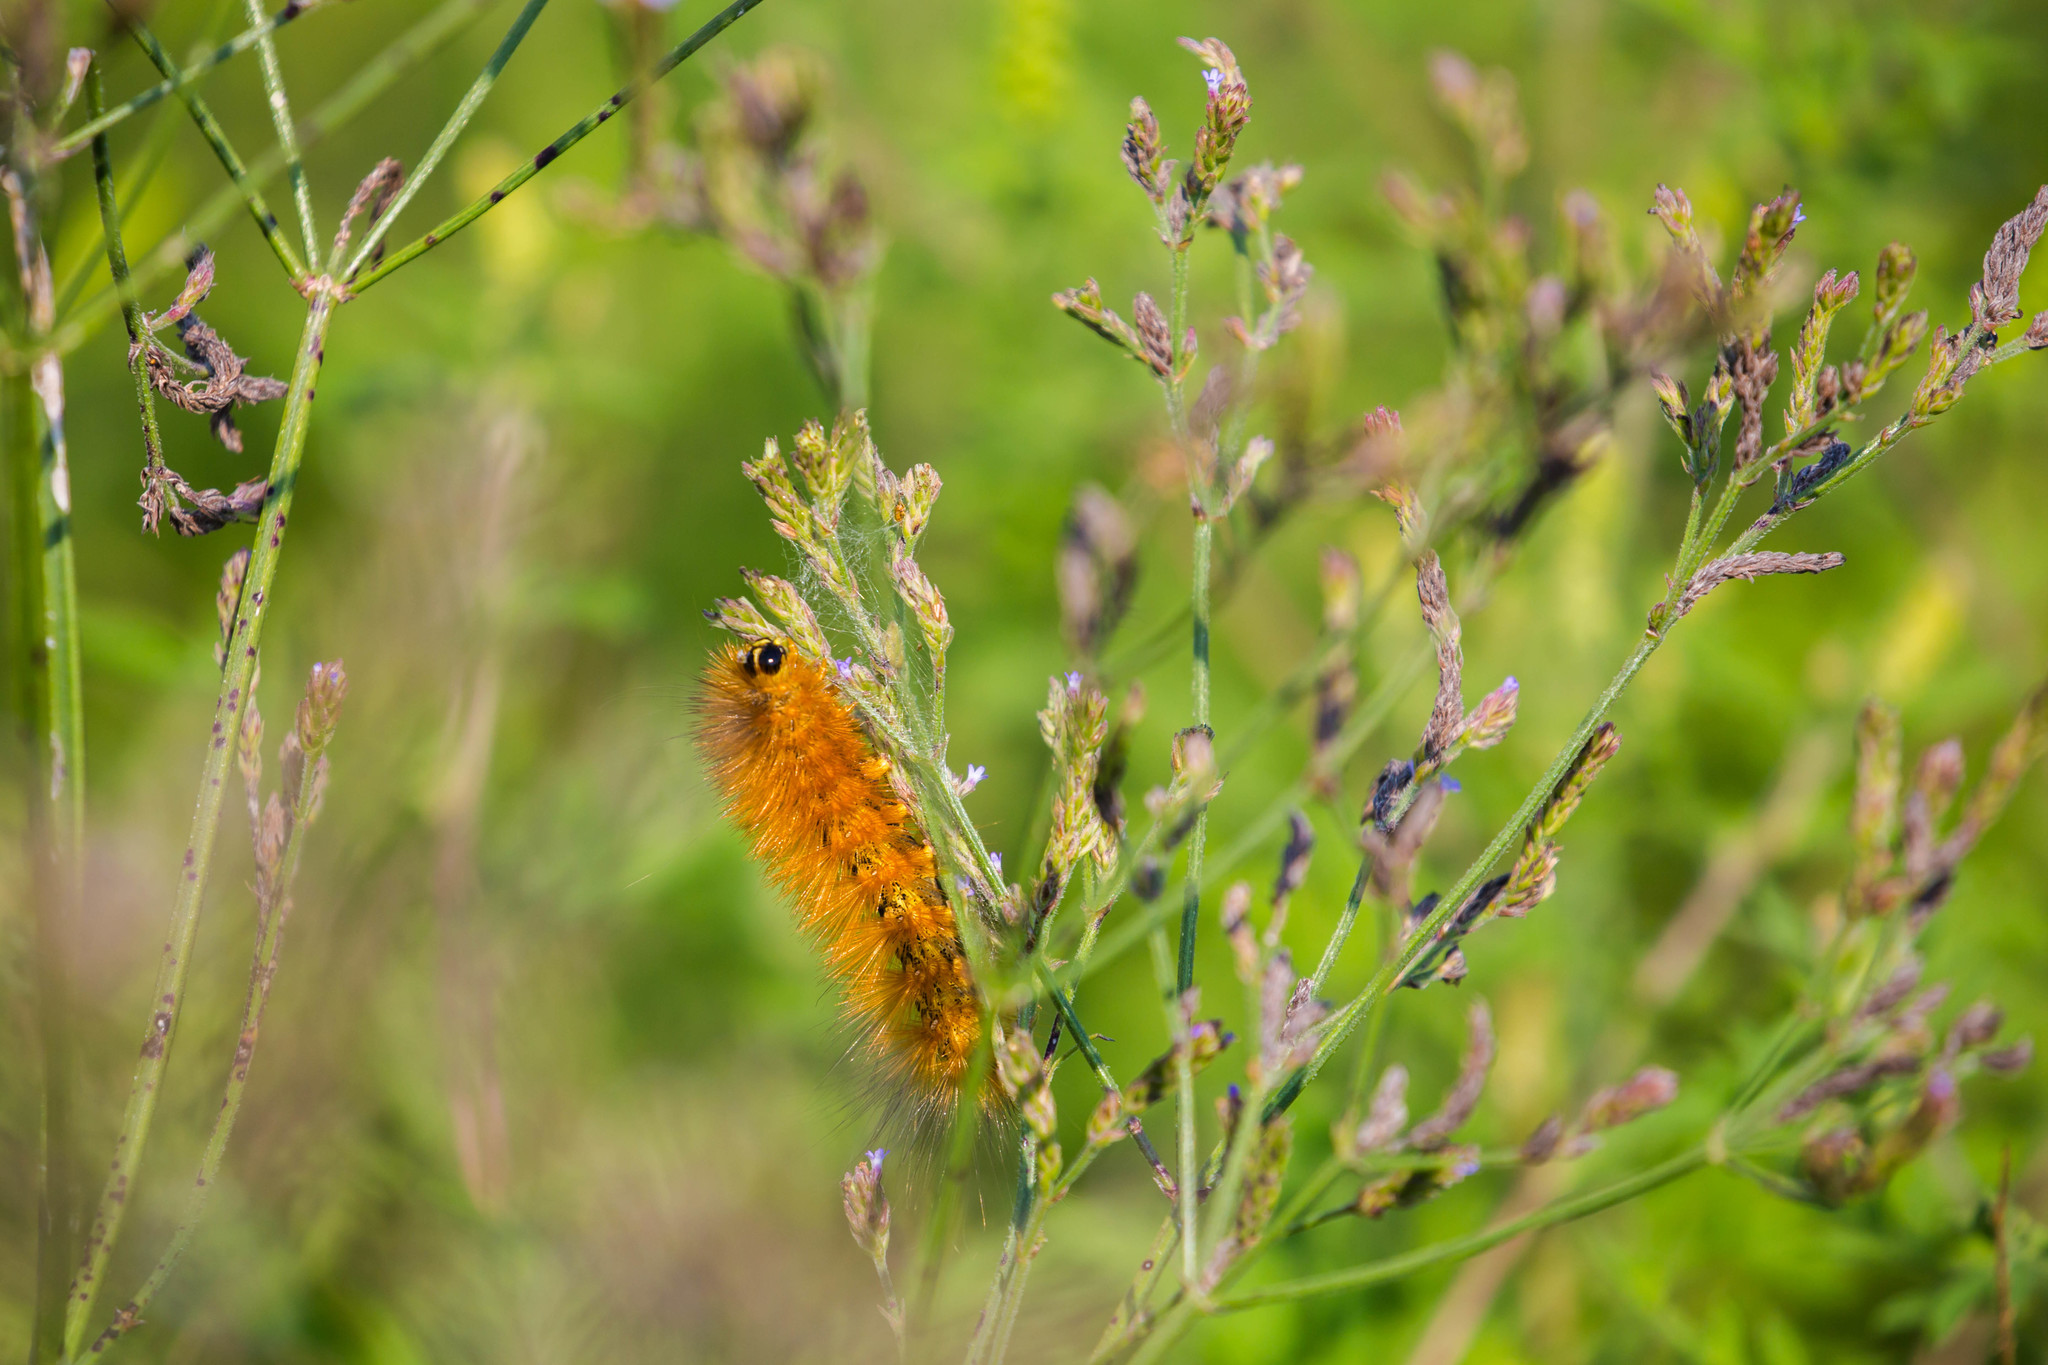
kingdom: Animalia
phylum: Arthropoda
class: Insecta
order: Lepidoptera
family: Erebidae
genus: Estigmene
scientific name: Estigmene acrea
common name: Salt marsh moth
